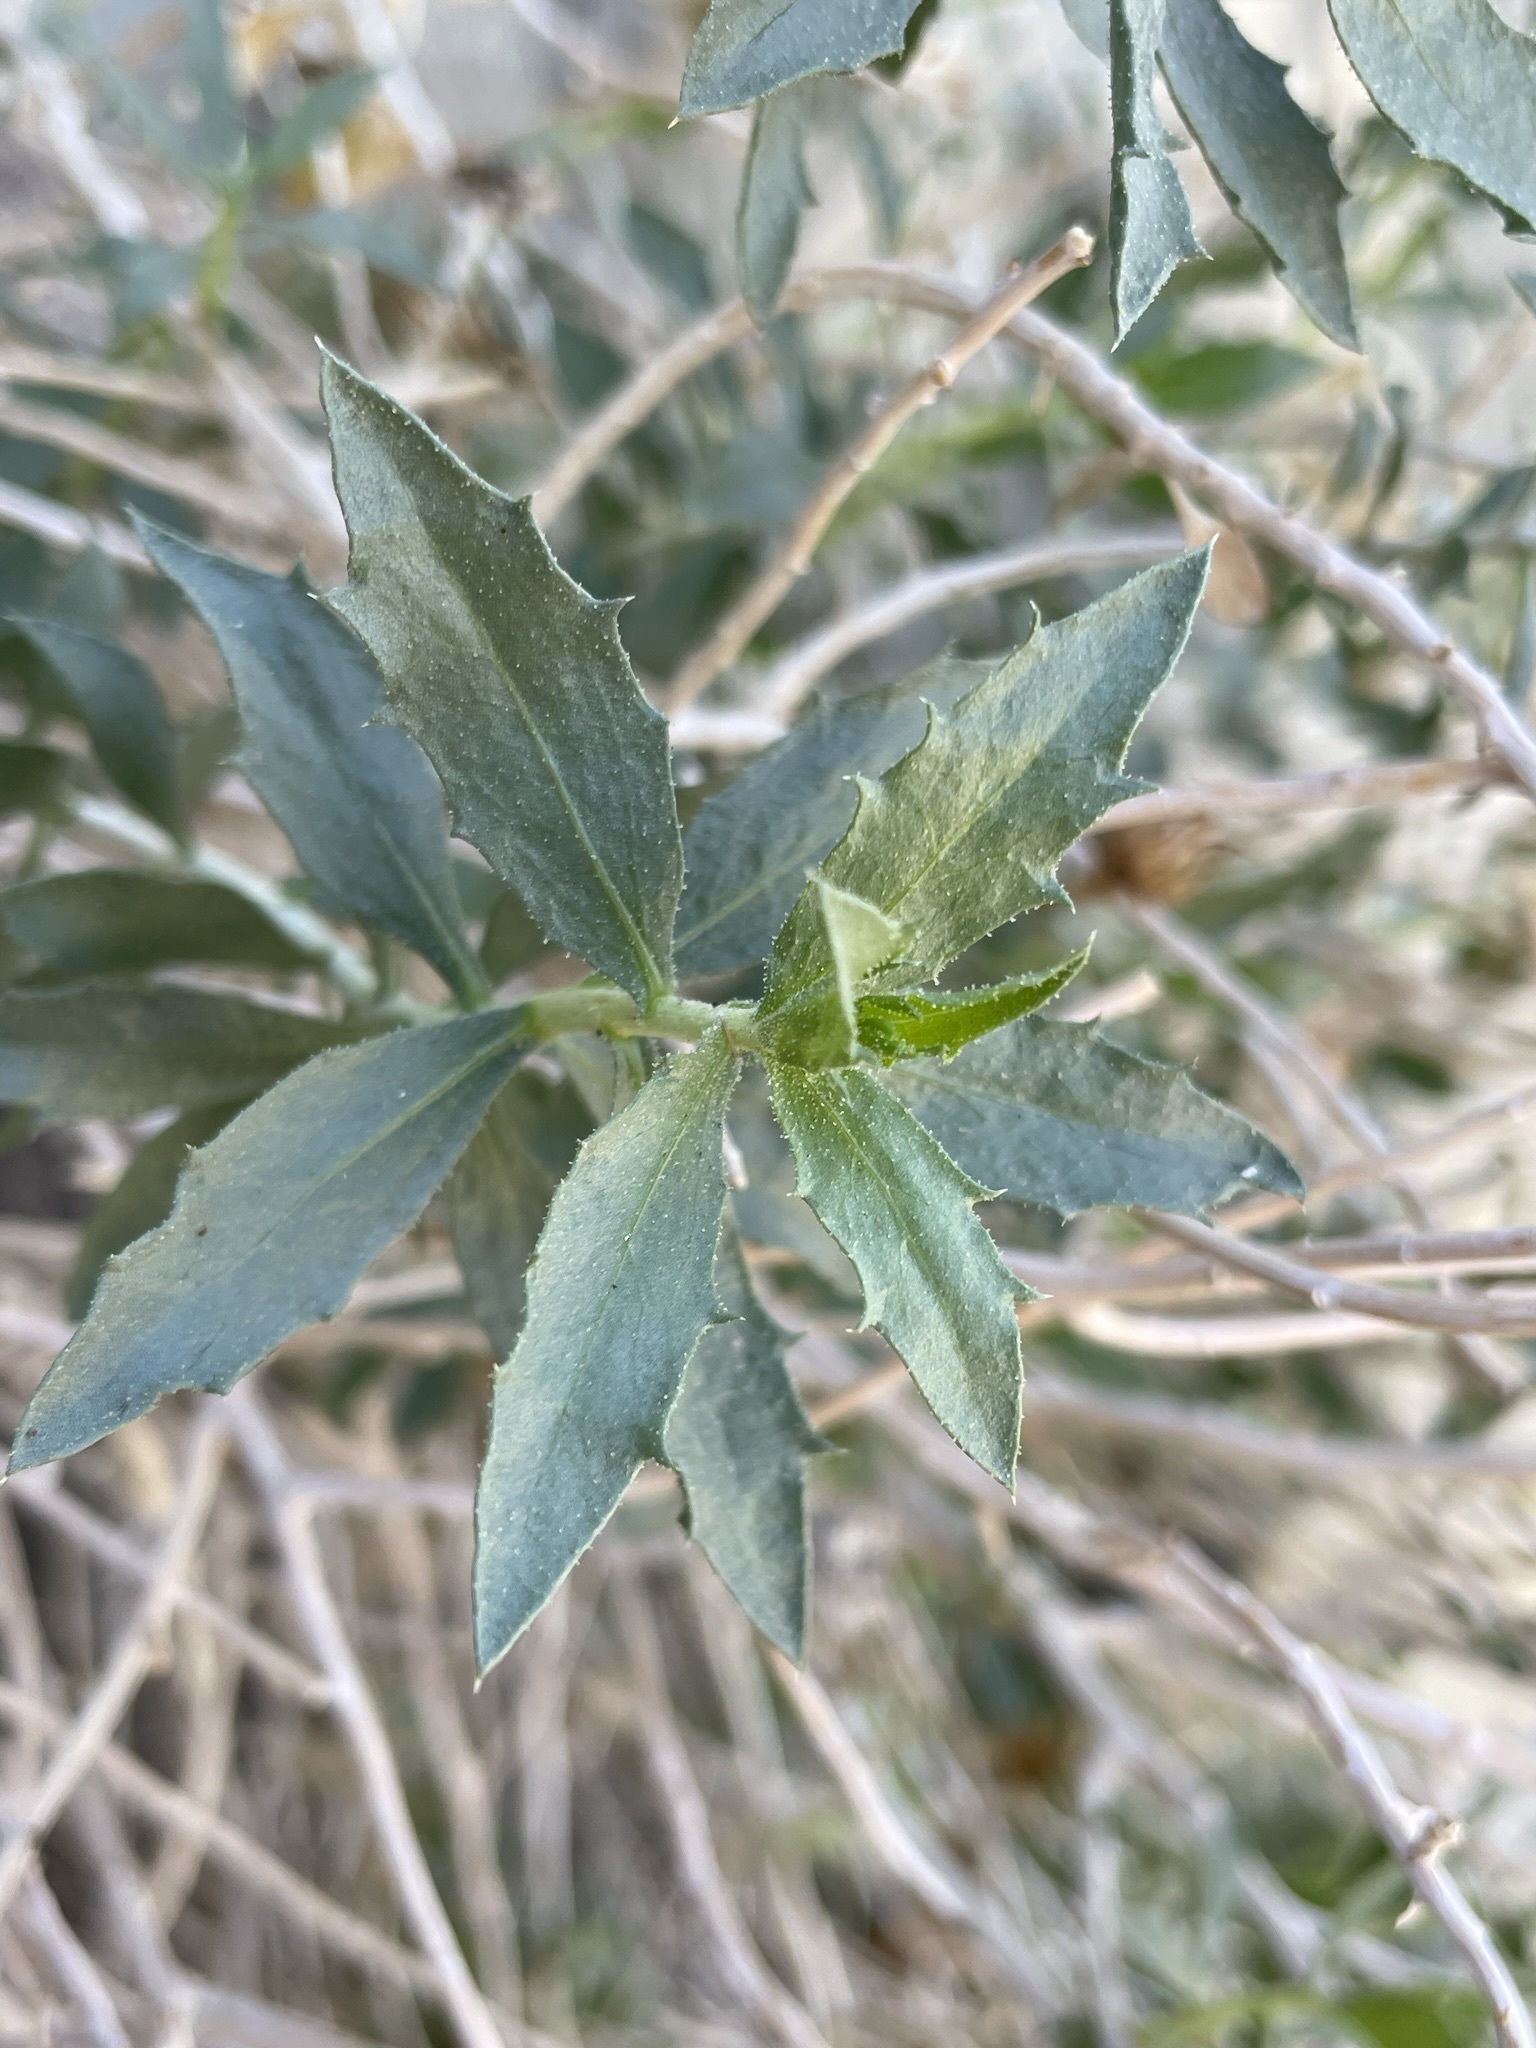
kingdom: Plantae
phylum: Tracheophyta
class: Magnoliopsida
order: Asterales
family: Asteraceae
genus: Xylorhiza
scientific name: Xylorhiza cognata
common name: Mecca woody-aster
